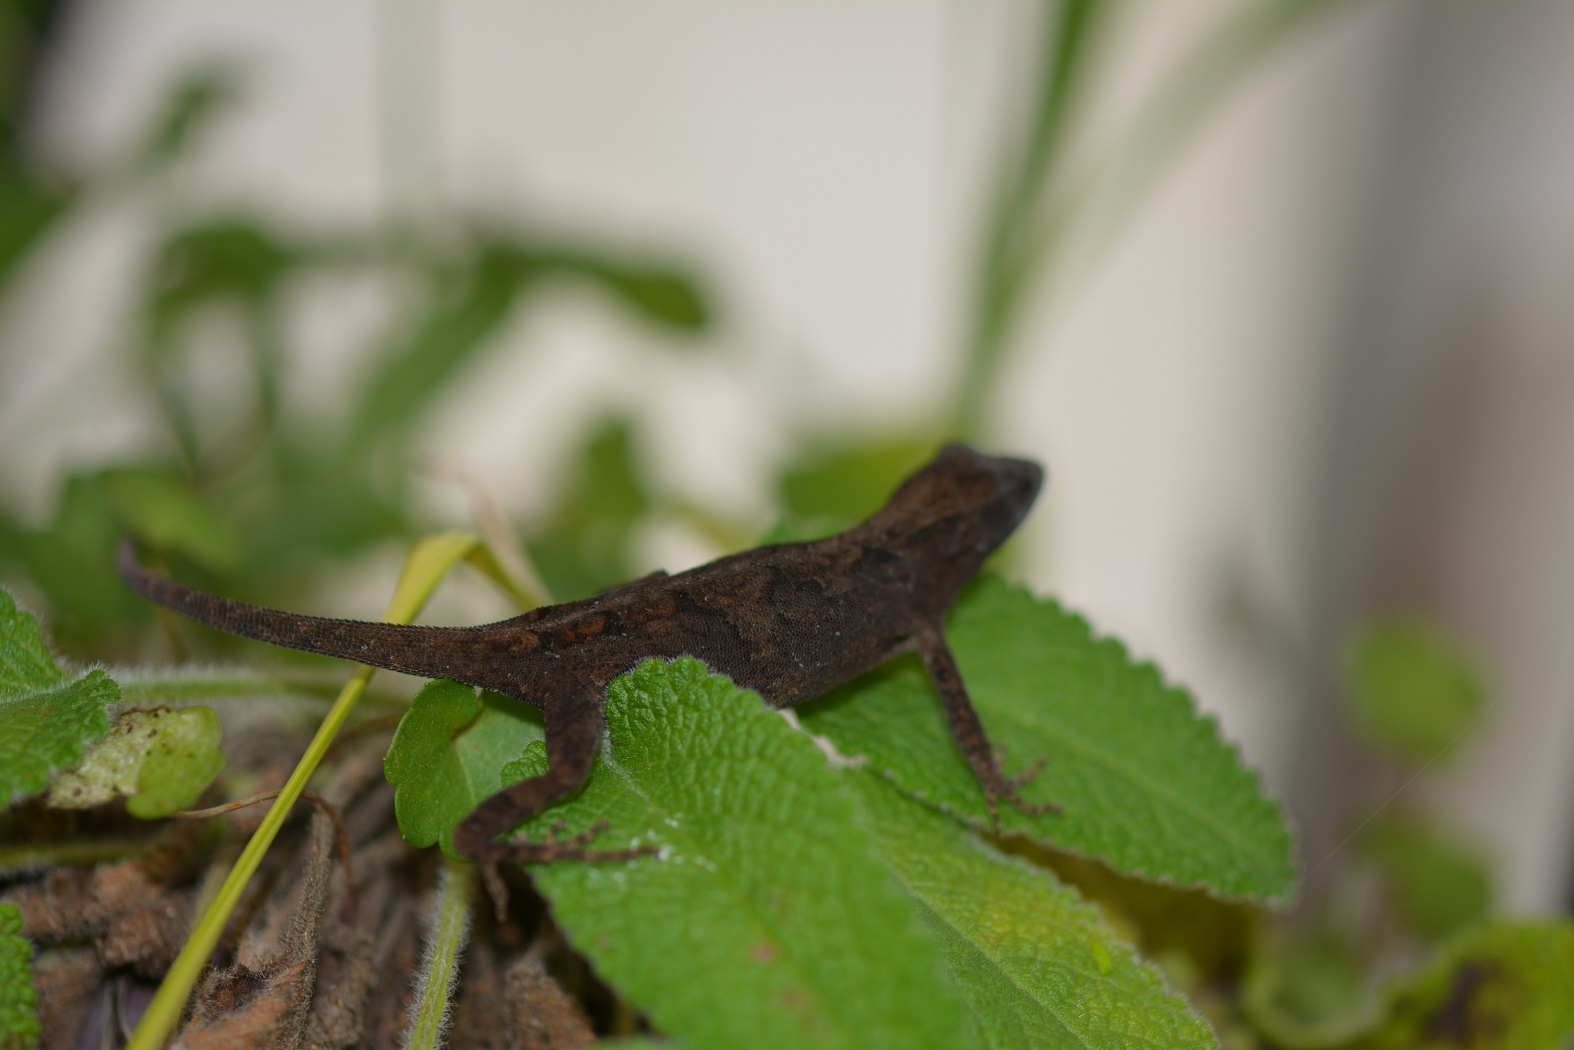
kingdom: Animalia
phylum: Chordata
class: Squamata
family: Dactyloidae
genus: Anolis
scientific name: Anolis anisolepis
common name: Chiapas ornate anole
